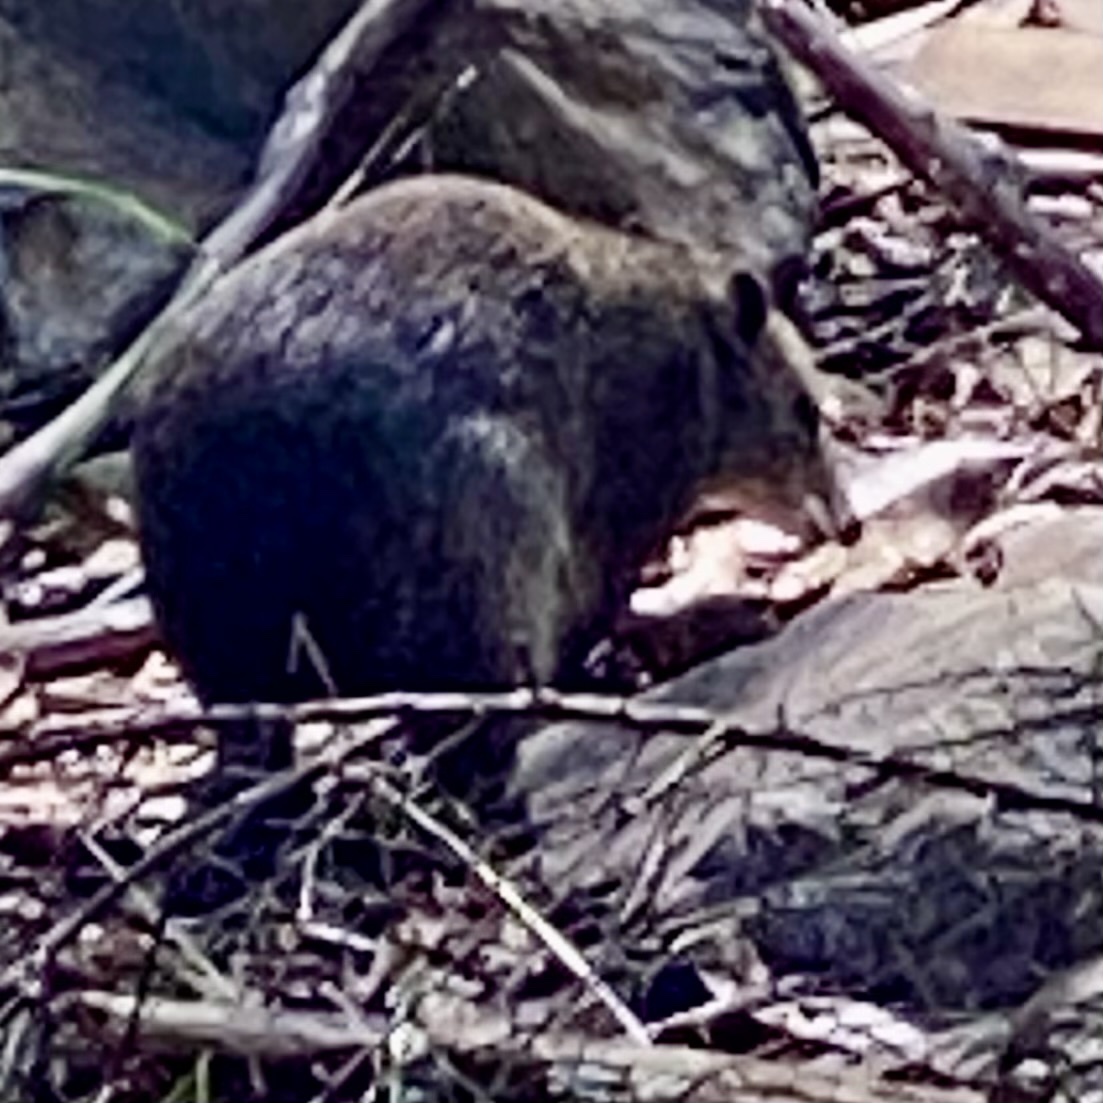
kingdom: Animalia
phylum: Chordata
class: Mammalia
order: Peramelemorphia
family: Peramelidae
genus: Isoodon
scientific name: Isoodon obesulus
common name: Southern brown bandicoot
